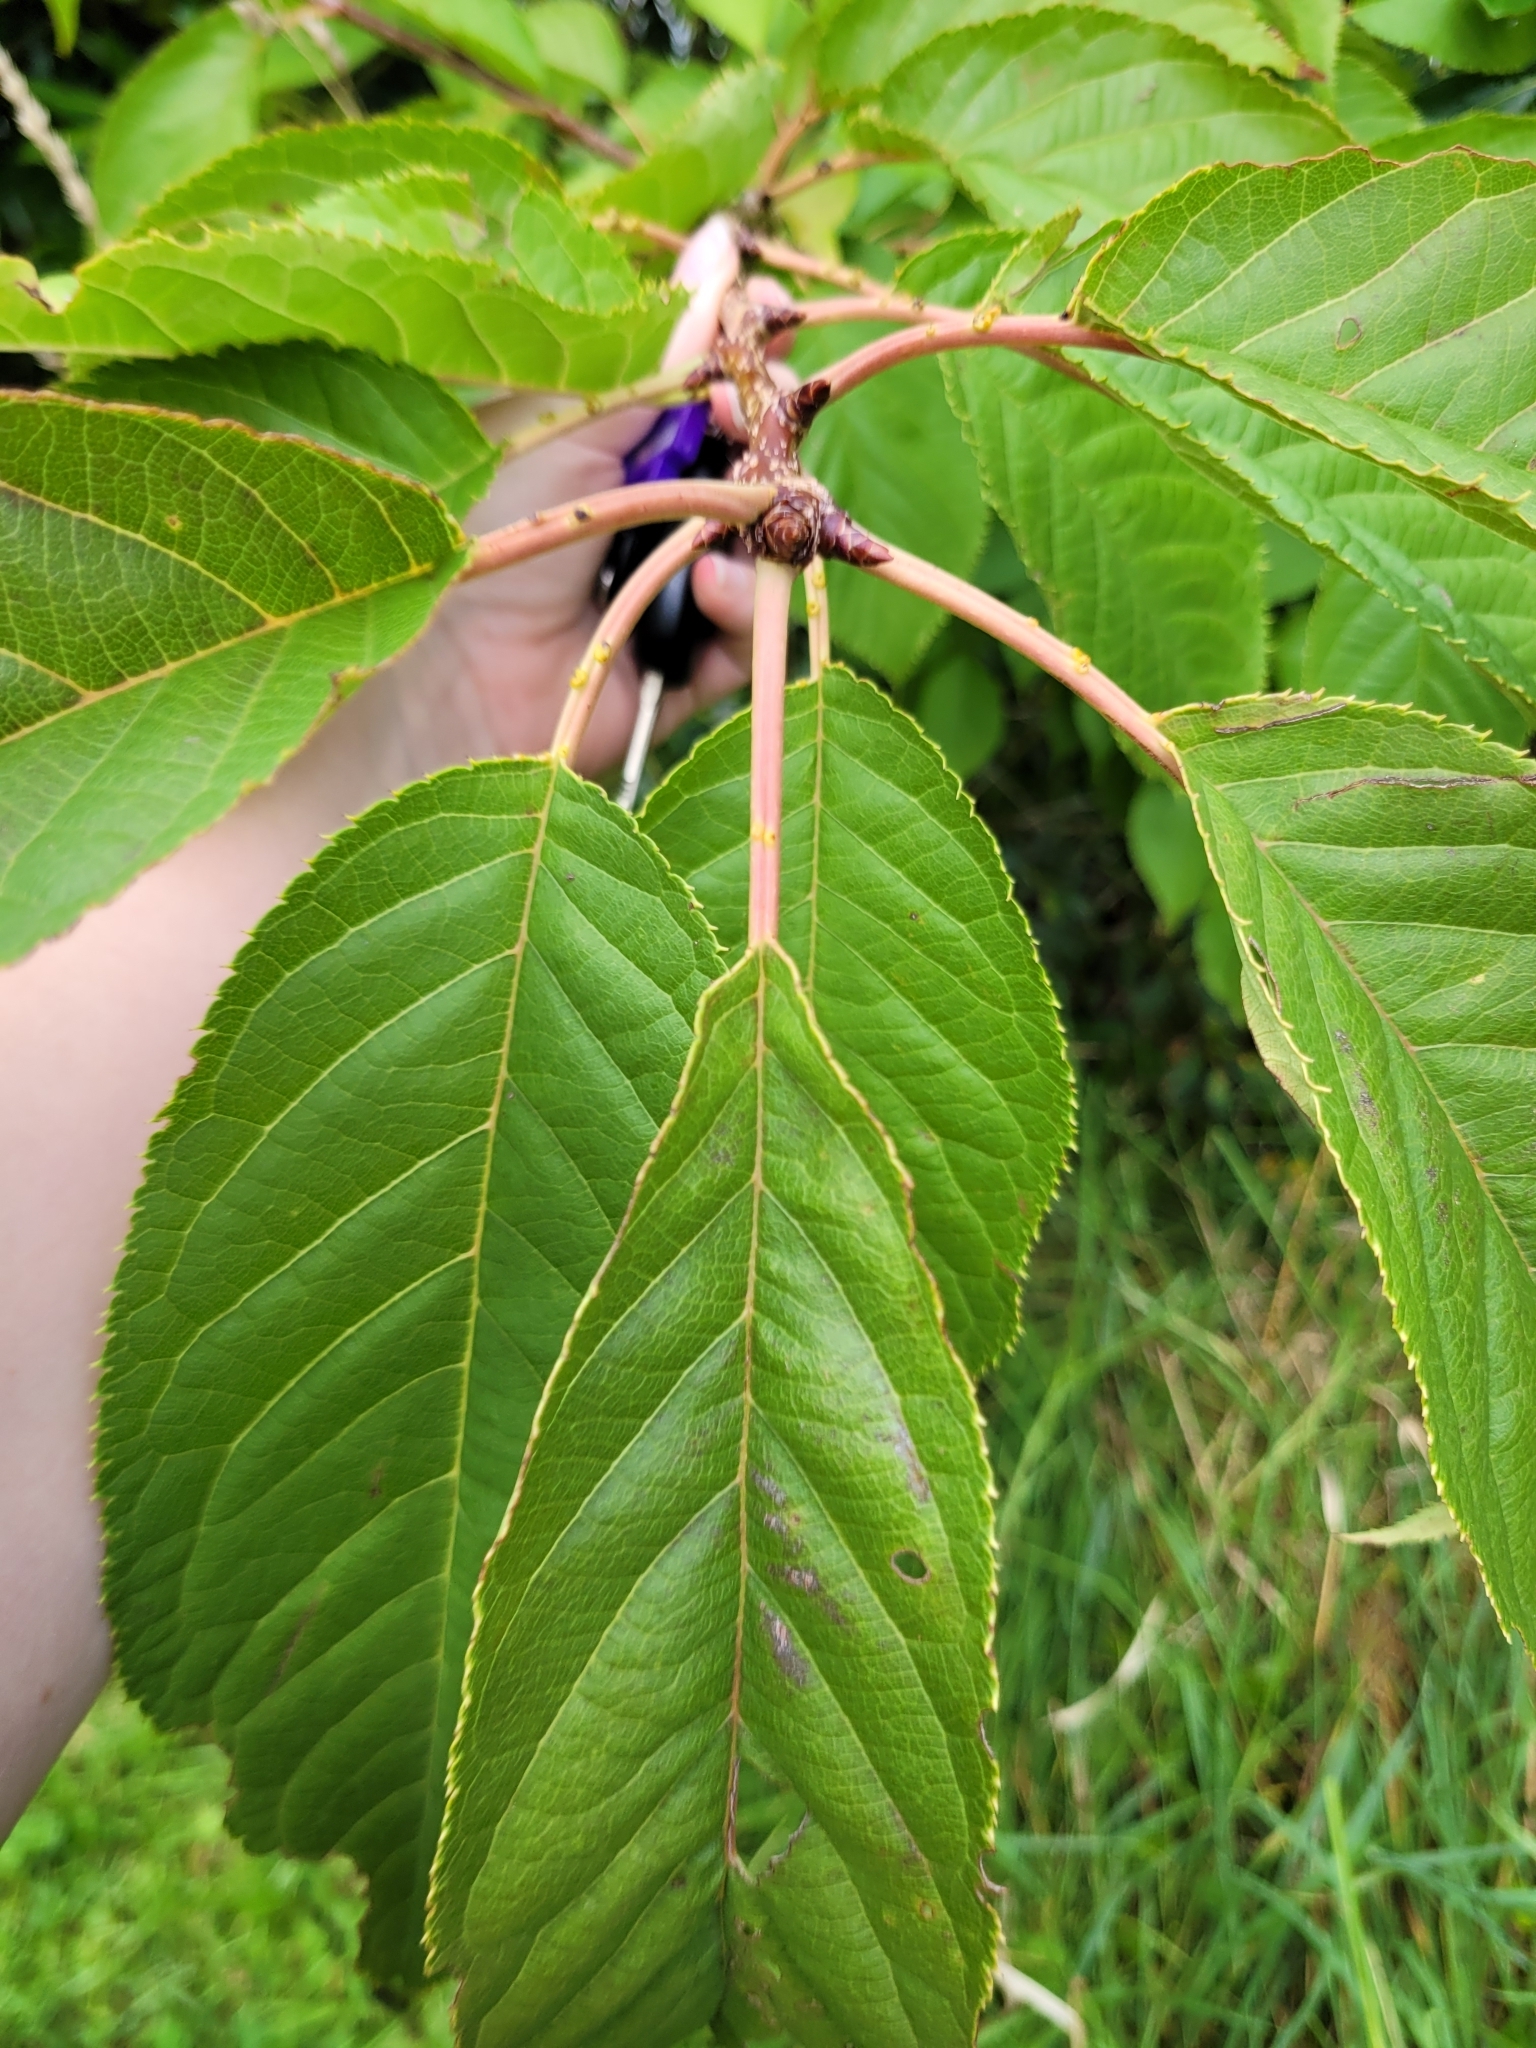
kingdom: Plantae
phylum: Tracheophyta
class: Magnoliopsida
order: Rosales
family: Rosaceae
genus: Prunus
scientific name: Prunus campanulata
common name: Taiwan flowering cherry
